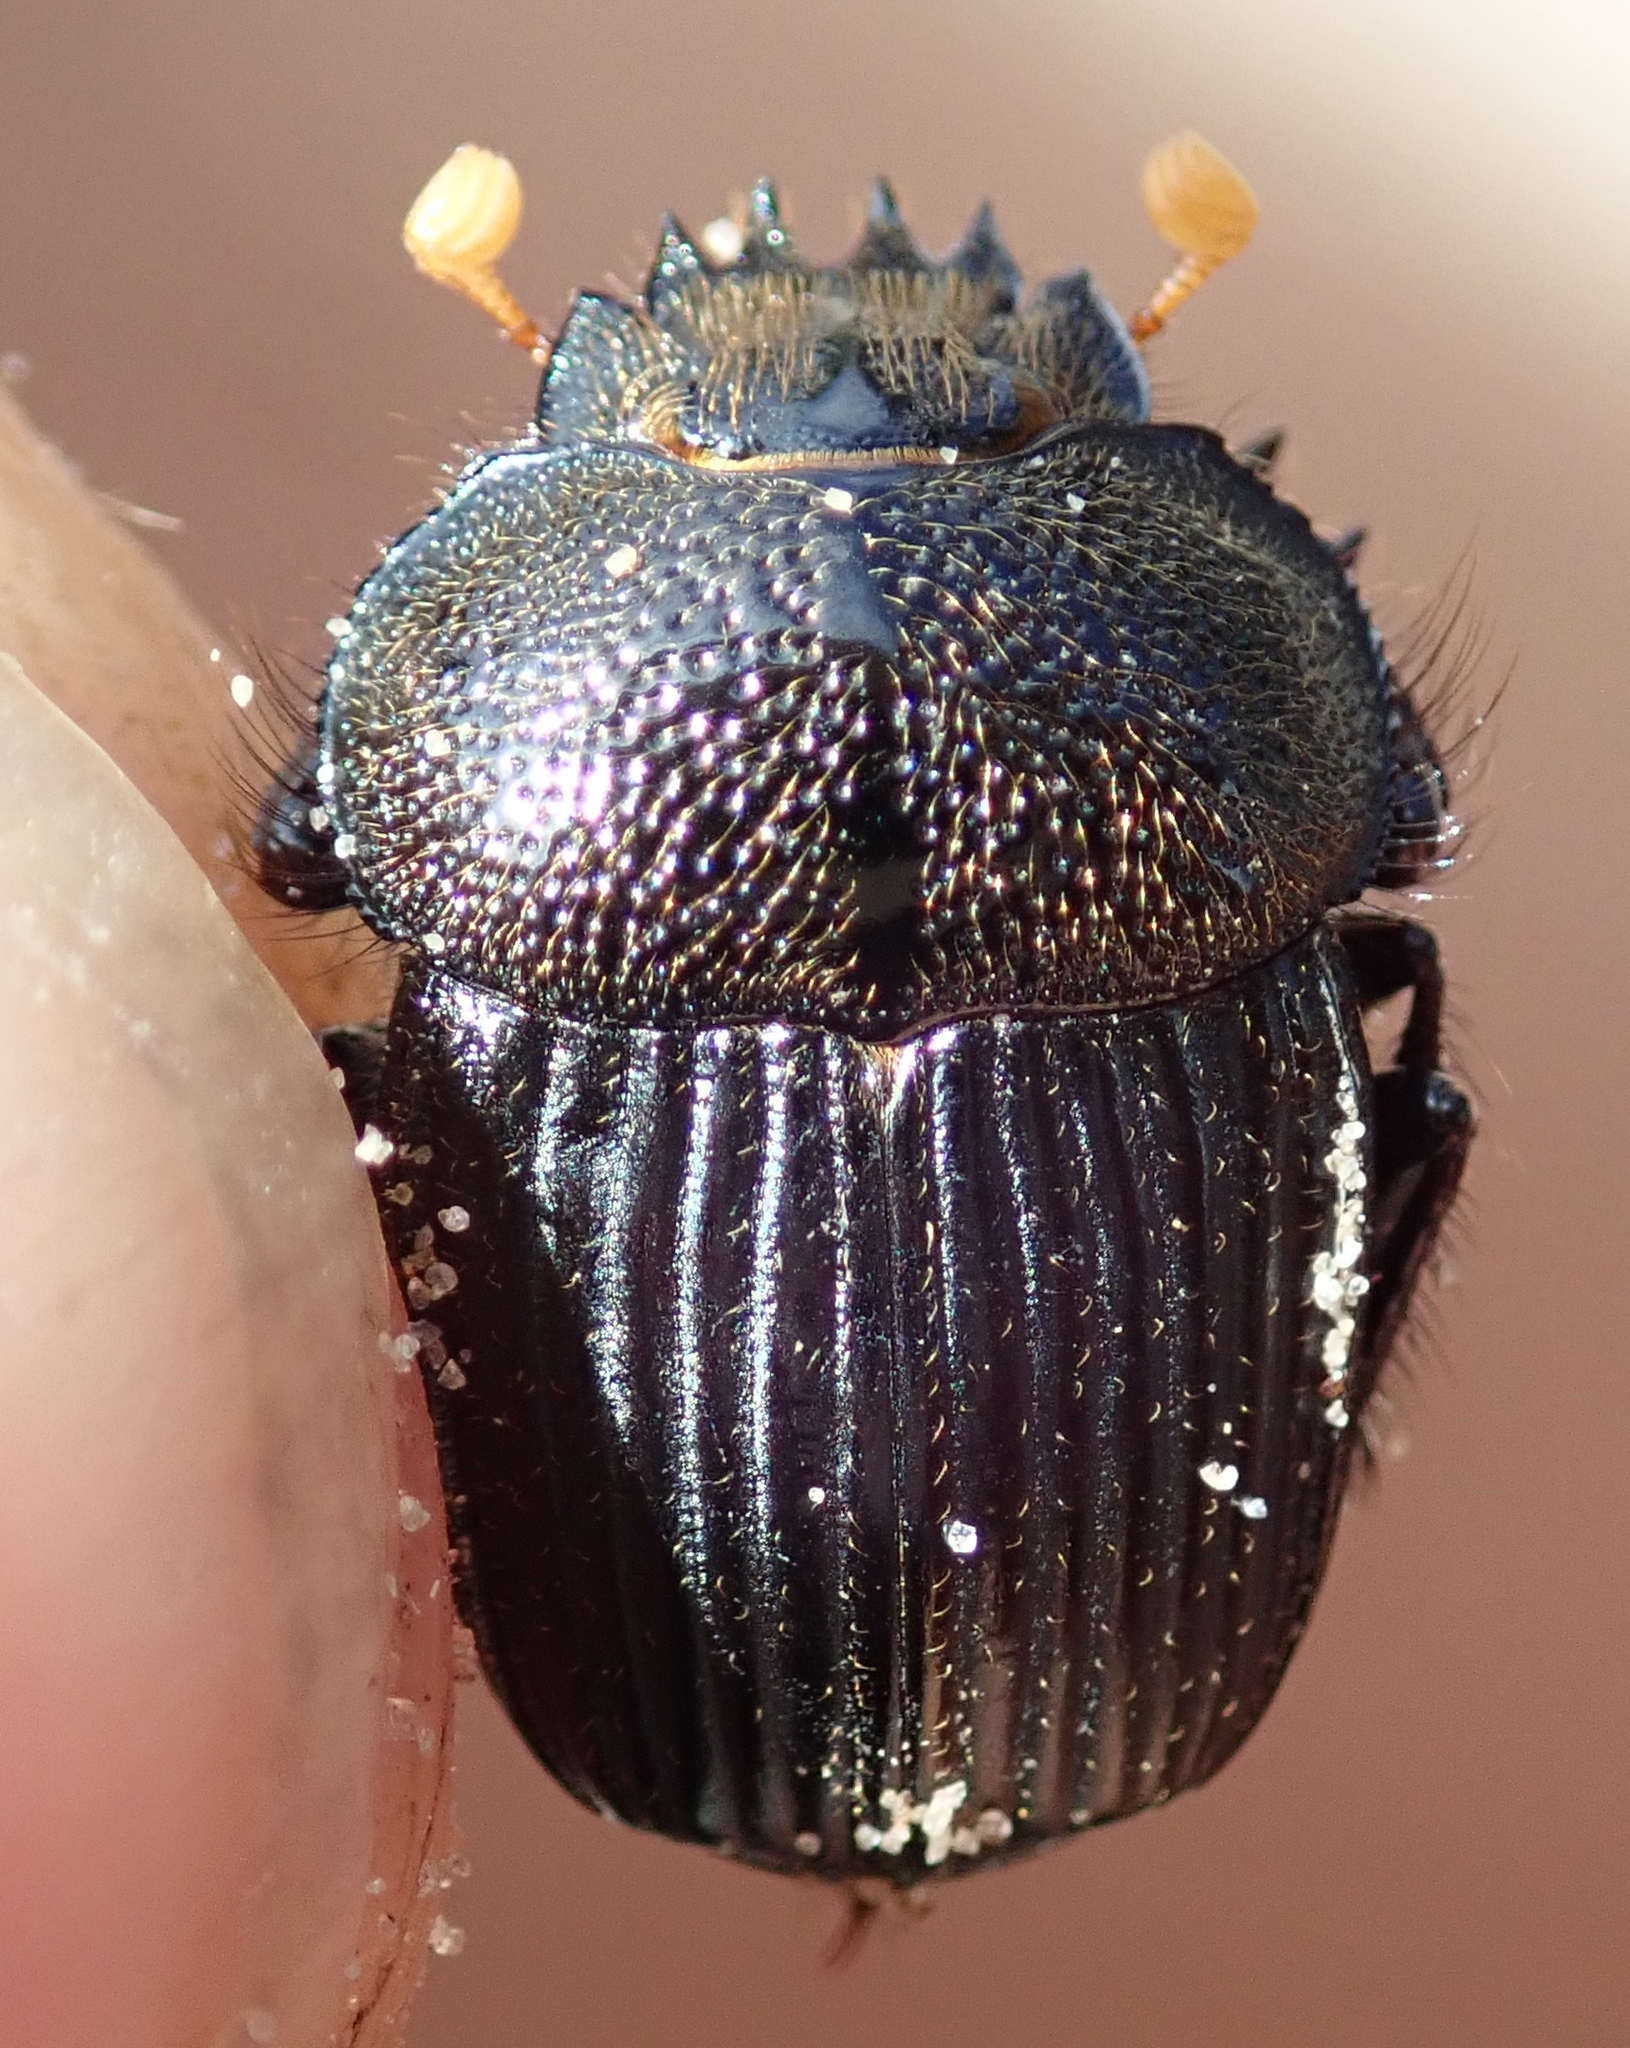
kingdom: Animalia
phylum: Arthropoda
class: Insecta
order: Coleoptera
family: Scarabaeidae
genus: Scarabaeolus
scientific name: Scarabaeolus anderseni
